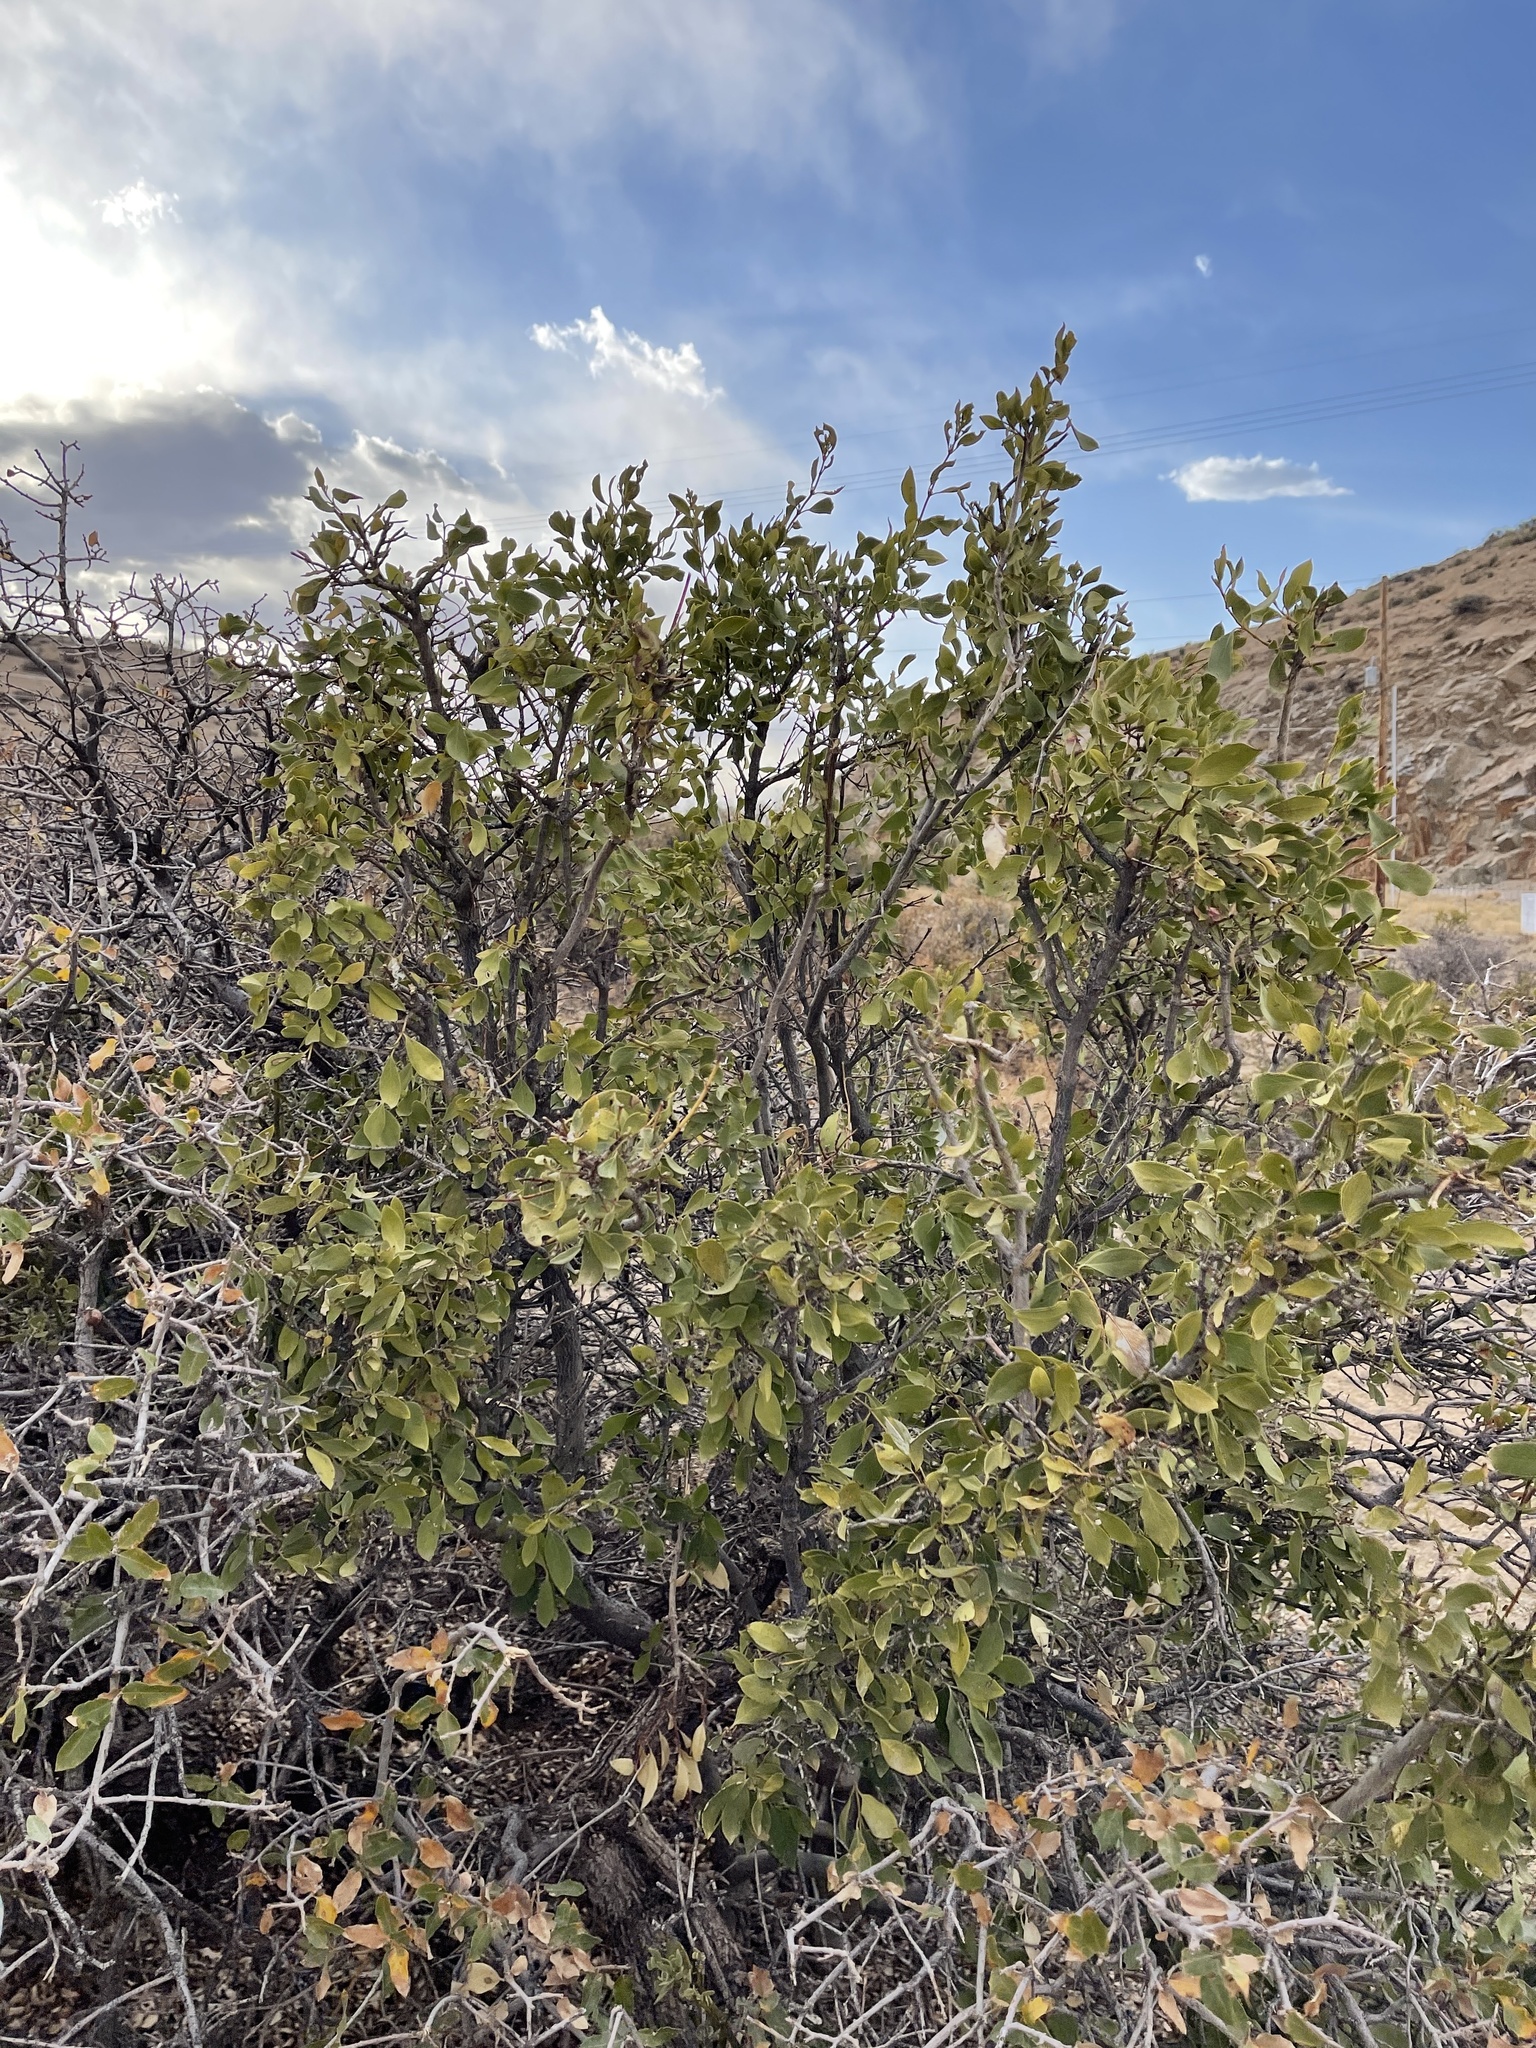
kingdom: Plantae
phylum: Tracheophyta
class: Magnoliopsida
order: Garryales
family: Garryaceae
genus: Garrya
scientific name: Garrya wrightii
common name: Wright's silktassel
